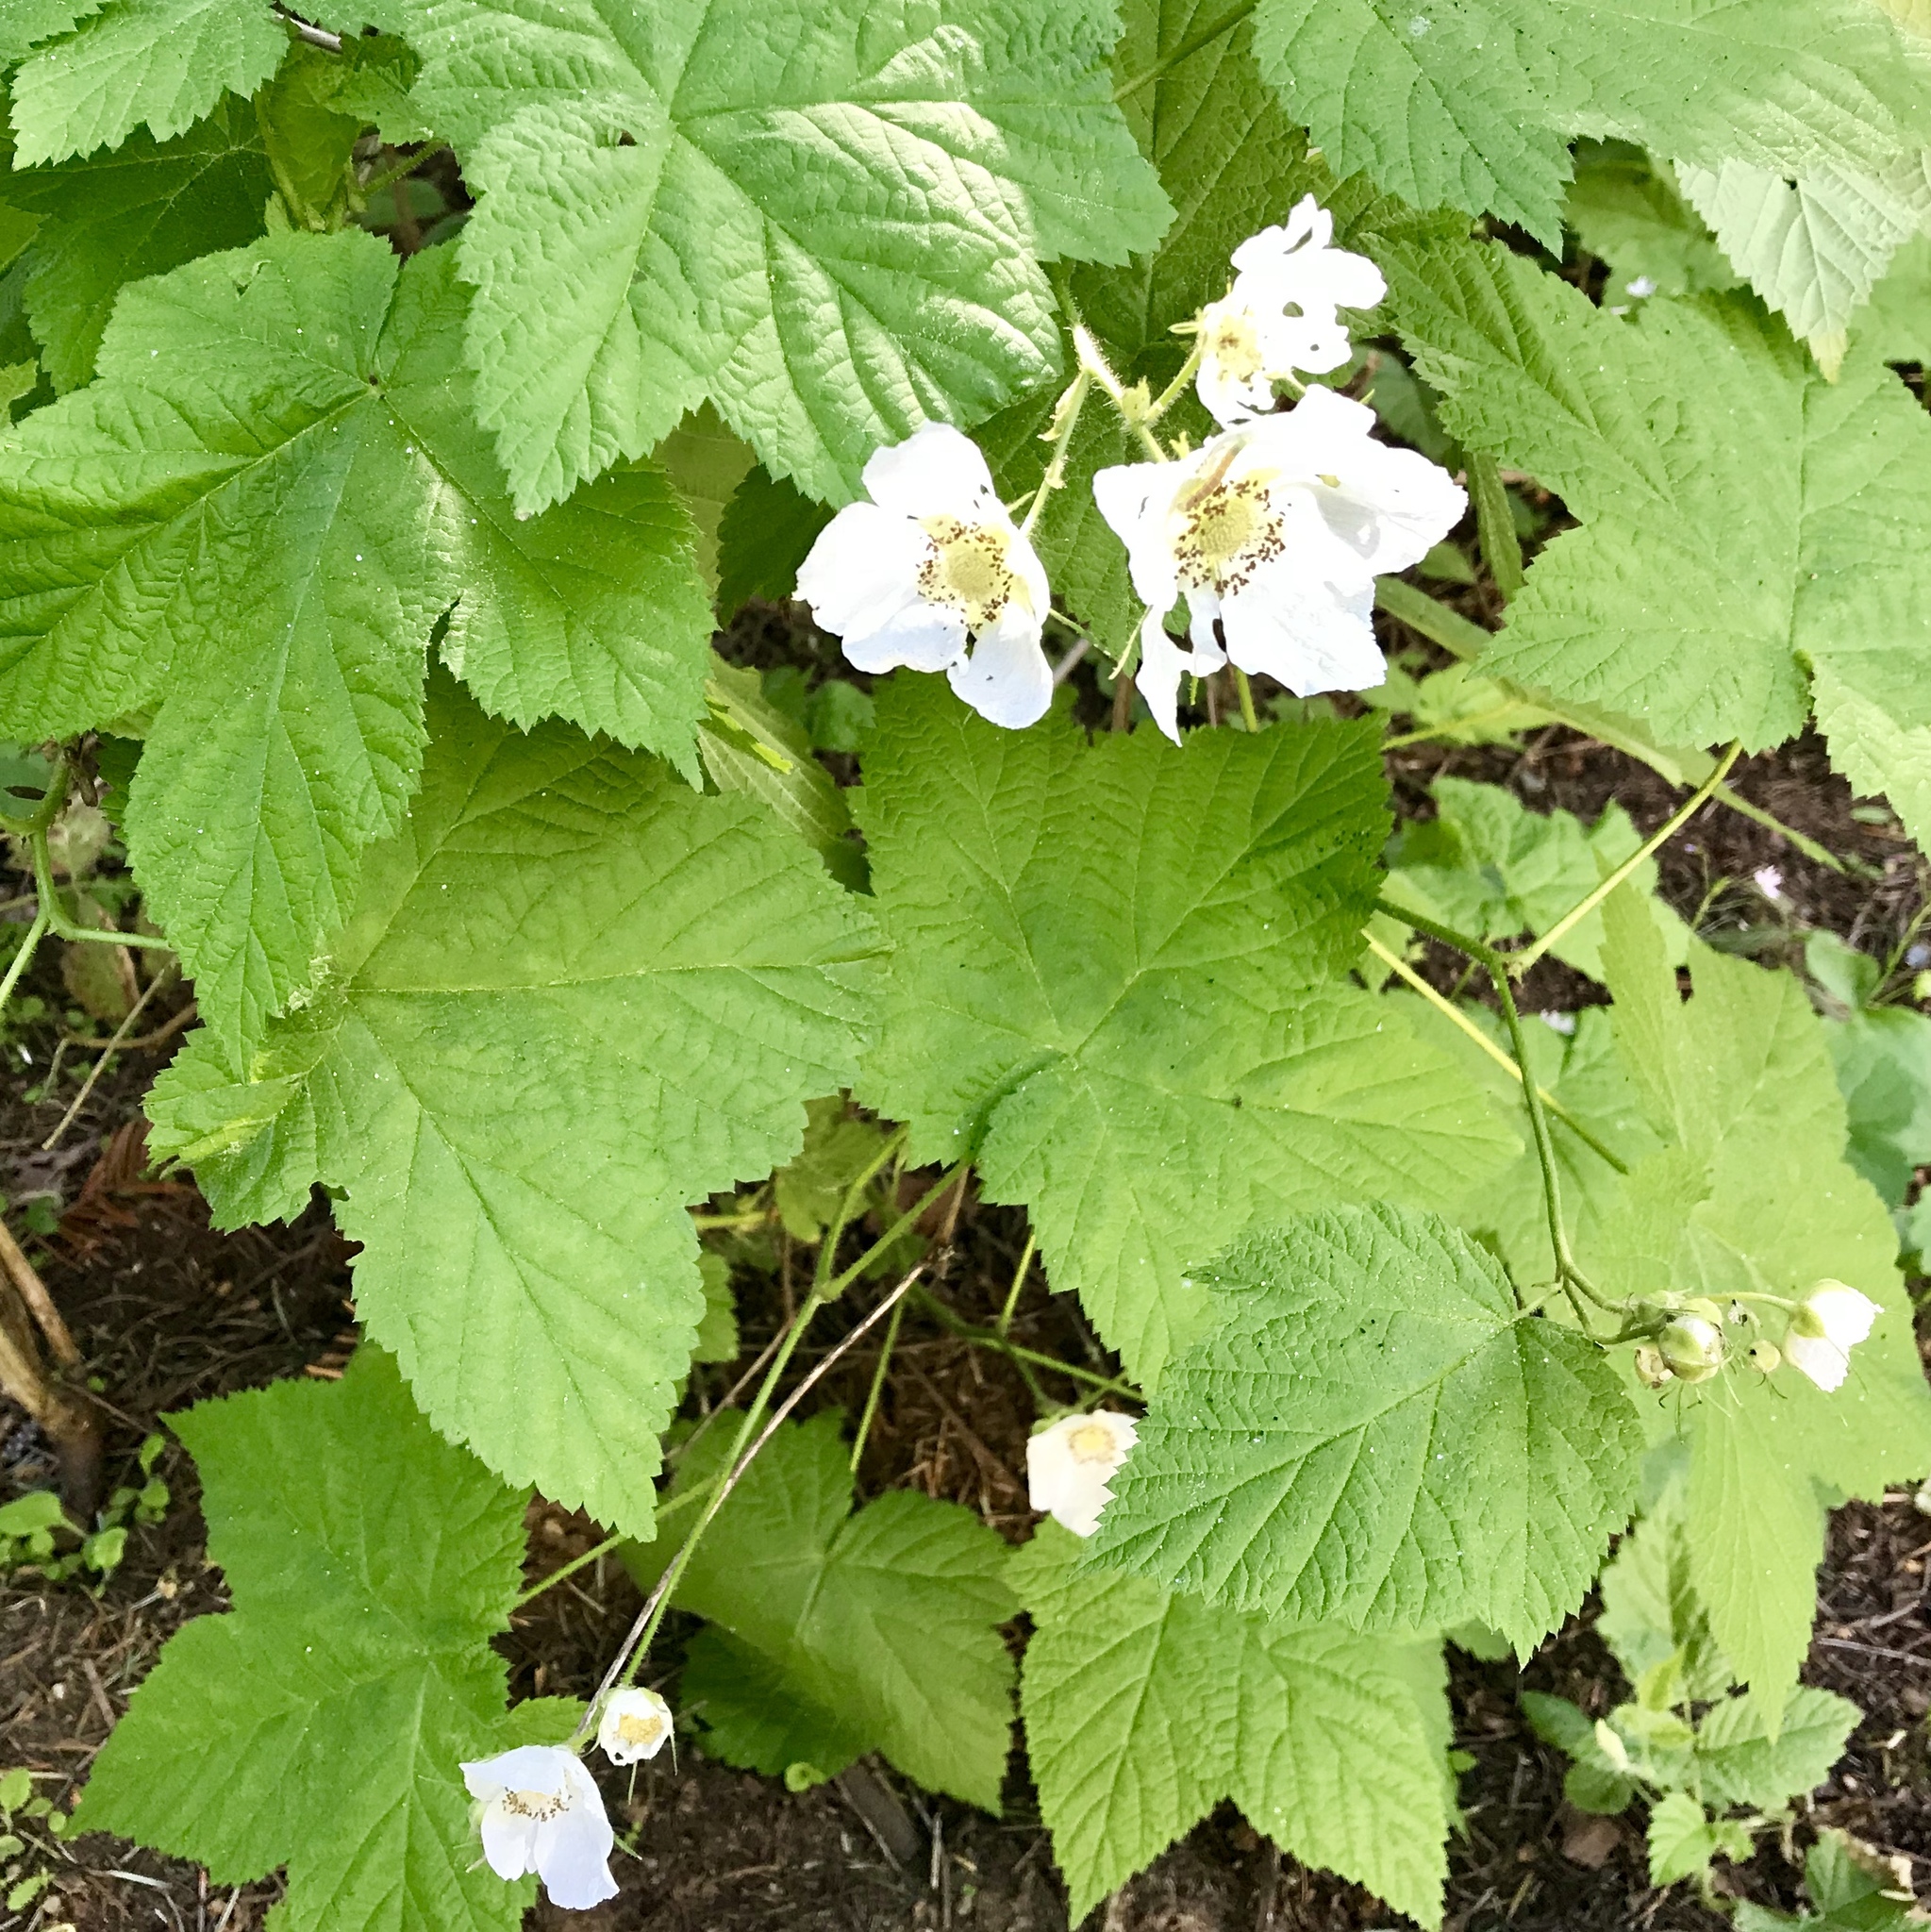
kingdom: Plantae
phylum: Tracheophyta
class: Magnoliopsida
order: Rosales
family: Rosaceae
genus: Rubus
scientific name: Rubus parviflorus
